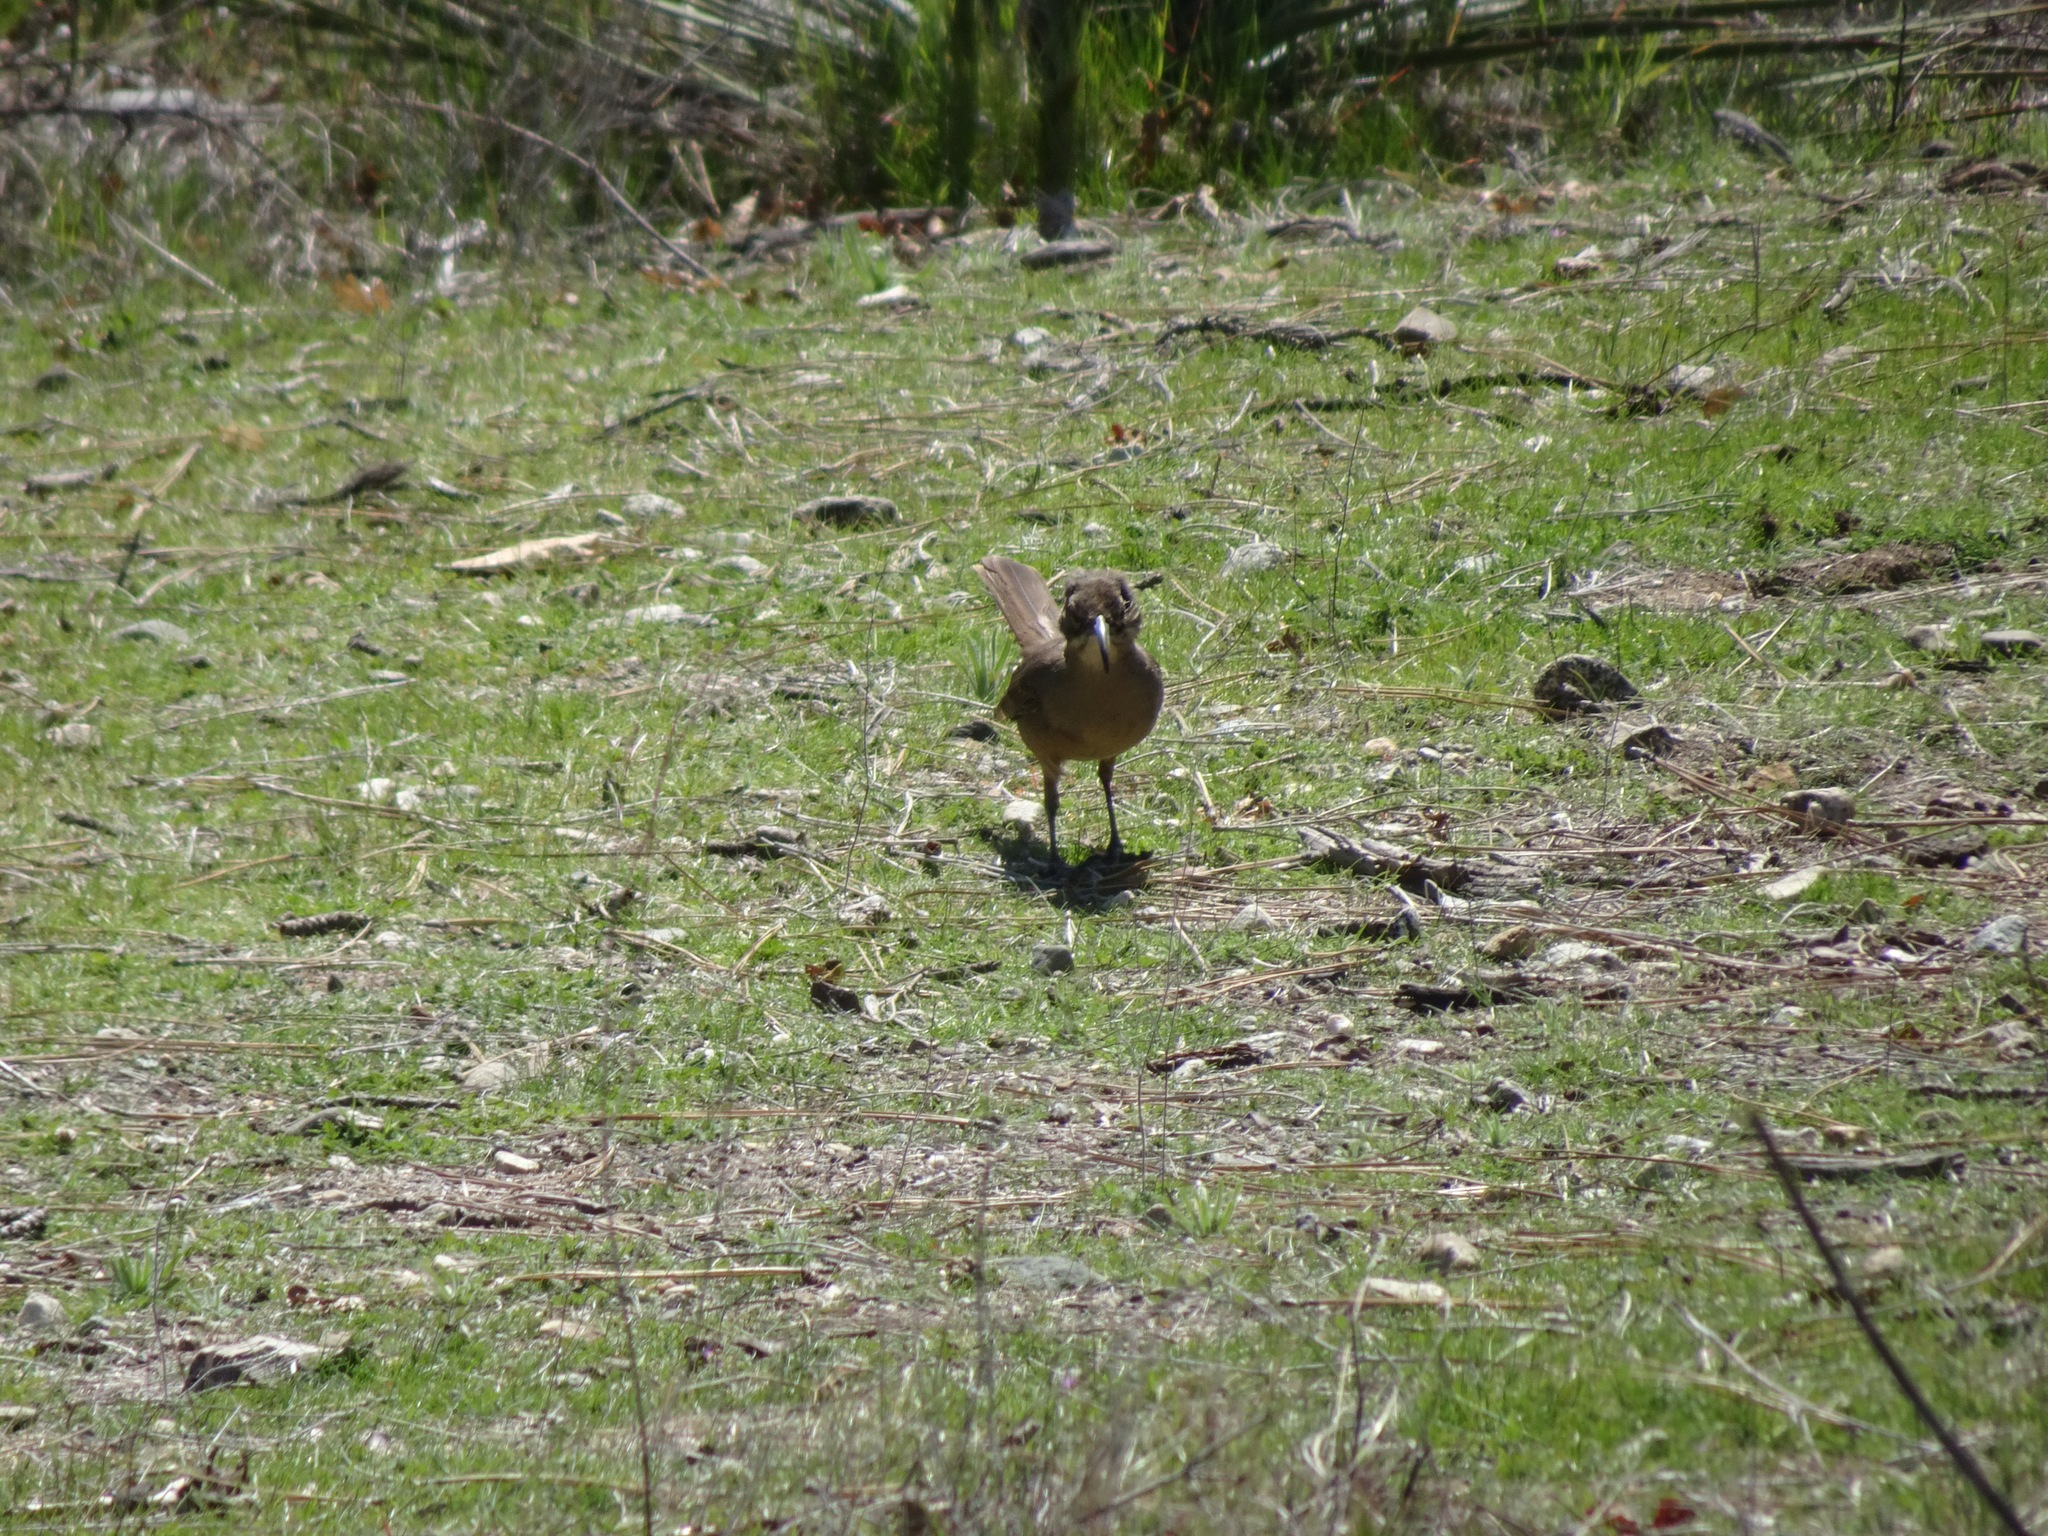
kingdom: Animalia
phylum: Chordata
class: Aves
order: Passeriformes
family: Mimidae
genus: Toxostoma
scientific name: Toxostoma redivivum
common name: California thrasher
